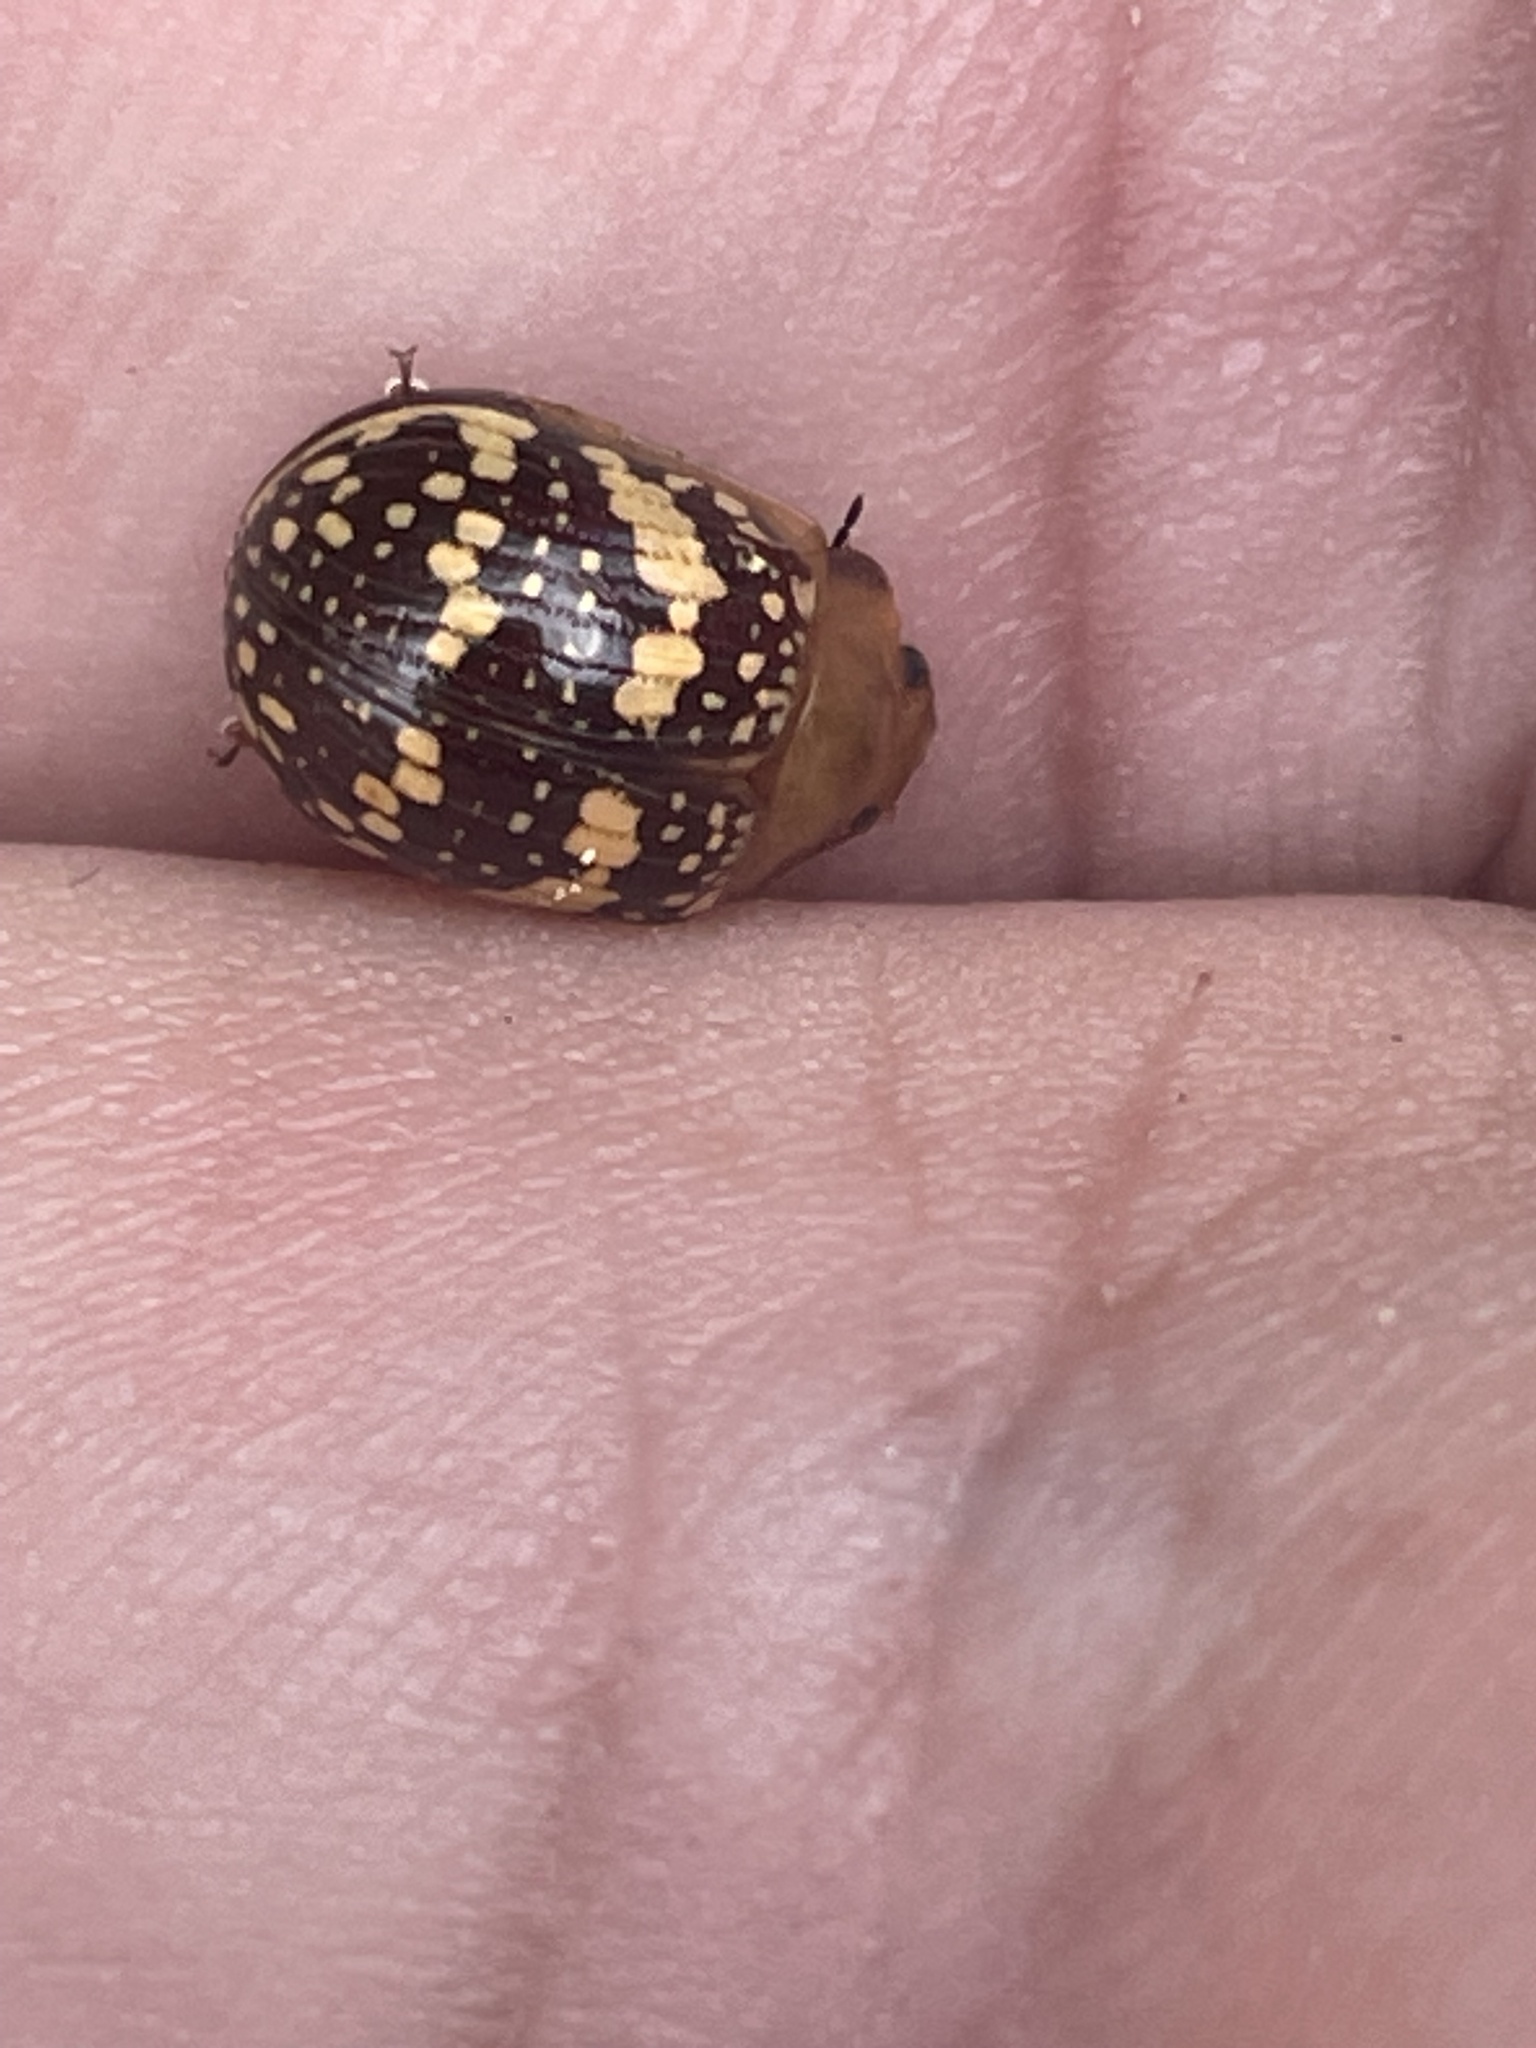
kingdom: Animalia
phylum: Arthropoda
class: Insecta
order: Coleoptera
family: Chrysomelidae
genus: Paropsis
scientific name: Paropsis
